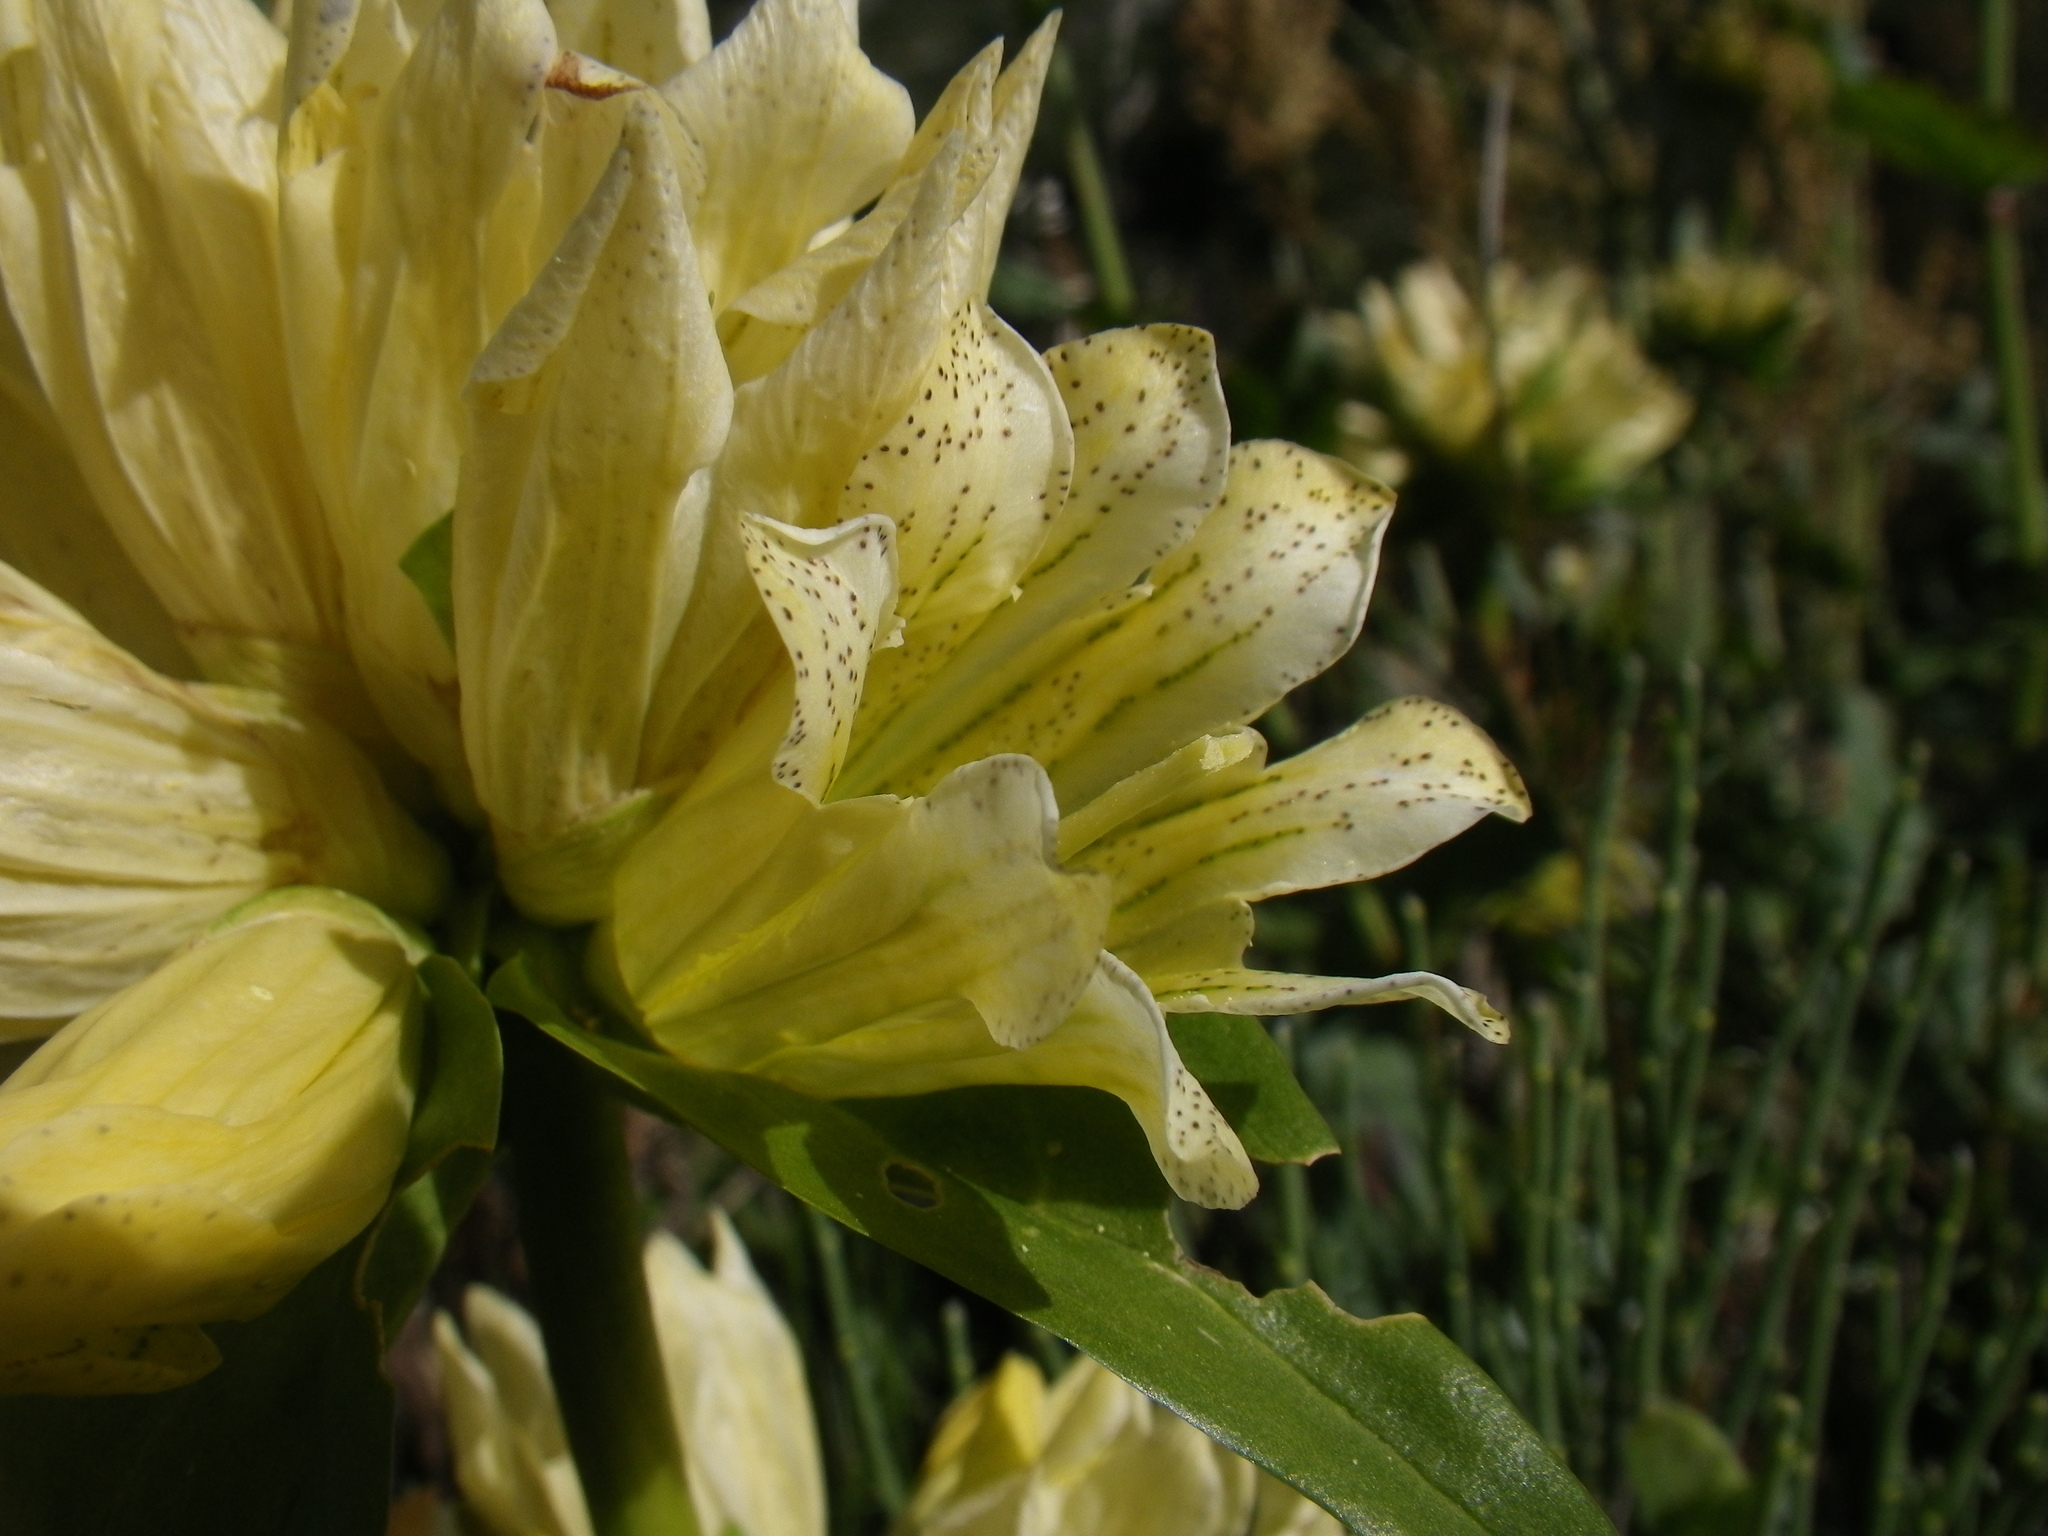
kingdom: Plantae
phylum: Tracheophyta
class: Magnoliopsida
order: Gentianales
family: Gentianaceae
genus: Gentiana
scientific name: Gentiana burseri
